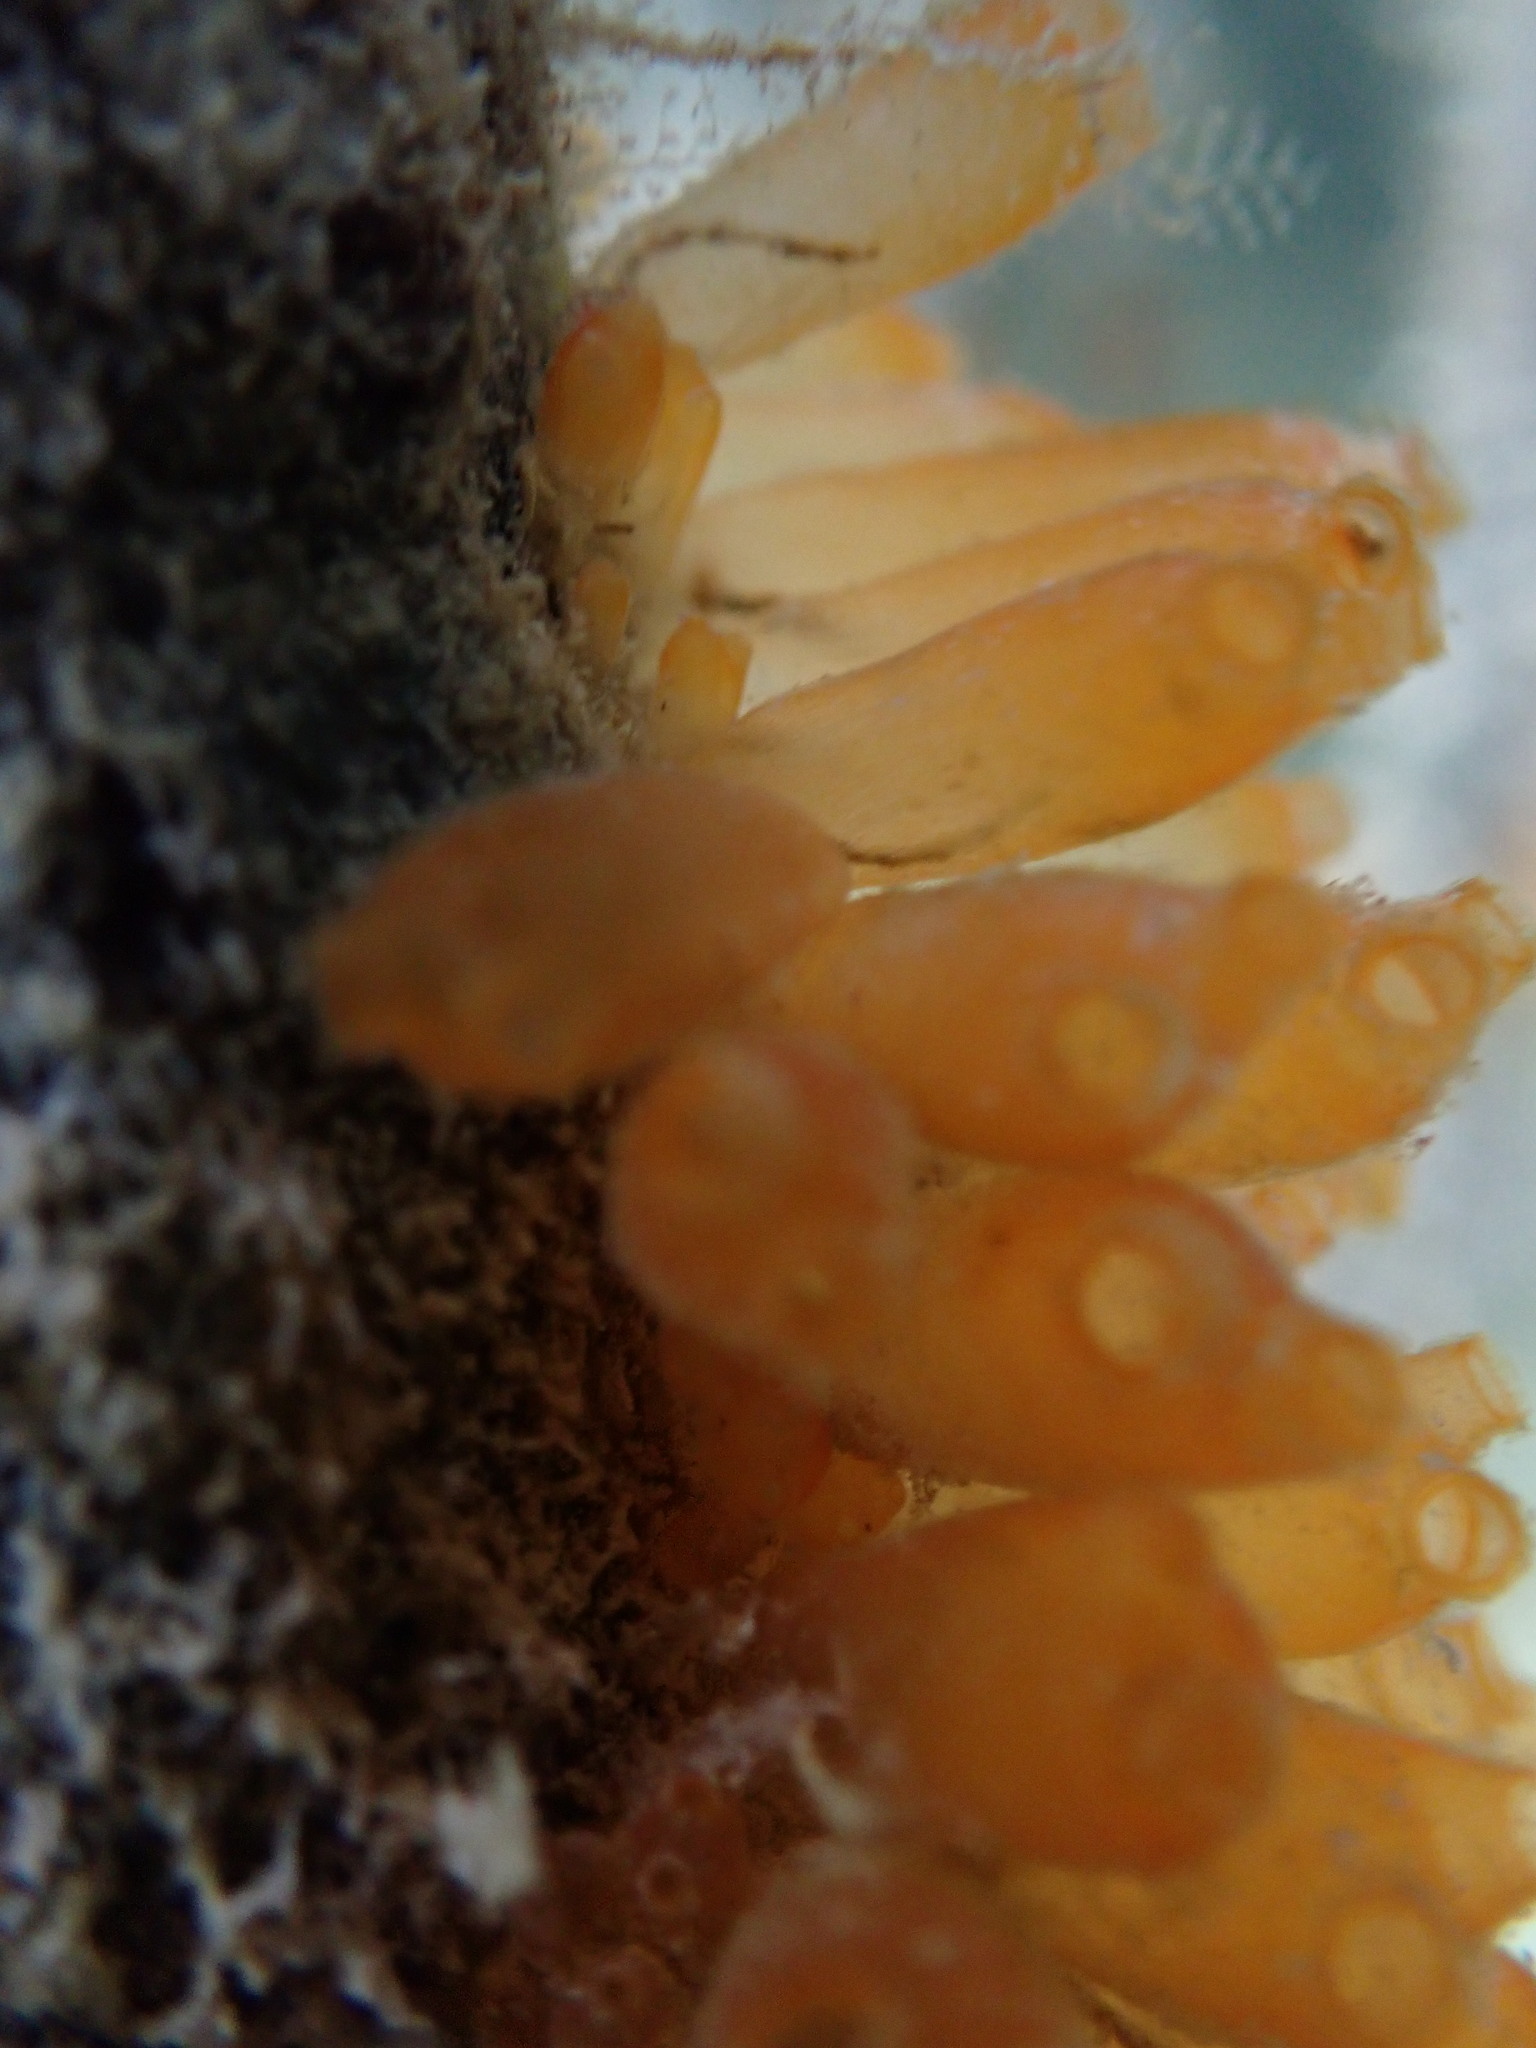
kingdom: Animalia
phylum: Chordata
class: Ascidiacea
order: Phlebobranchia
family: Perophoridae
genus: Ecteinascidia
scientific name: Ecteinascidia turbinata
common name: Mangrove tunicate
